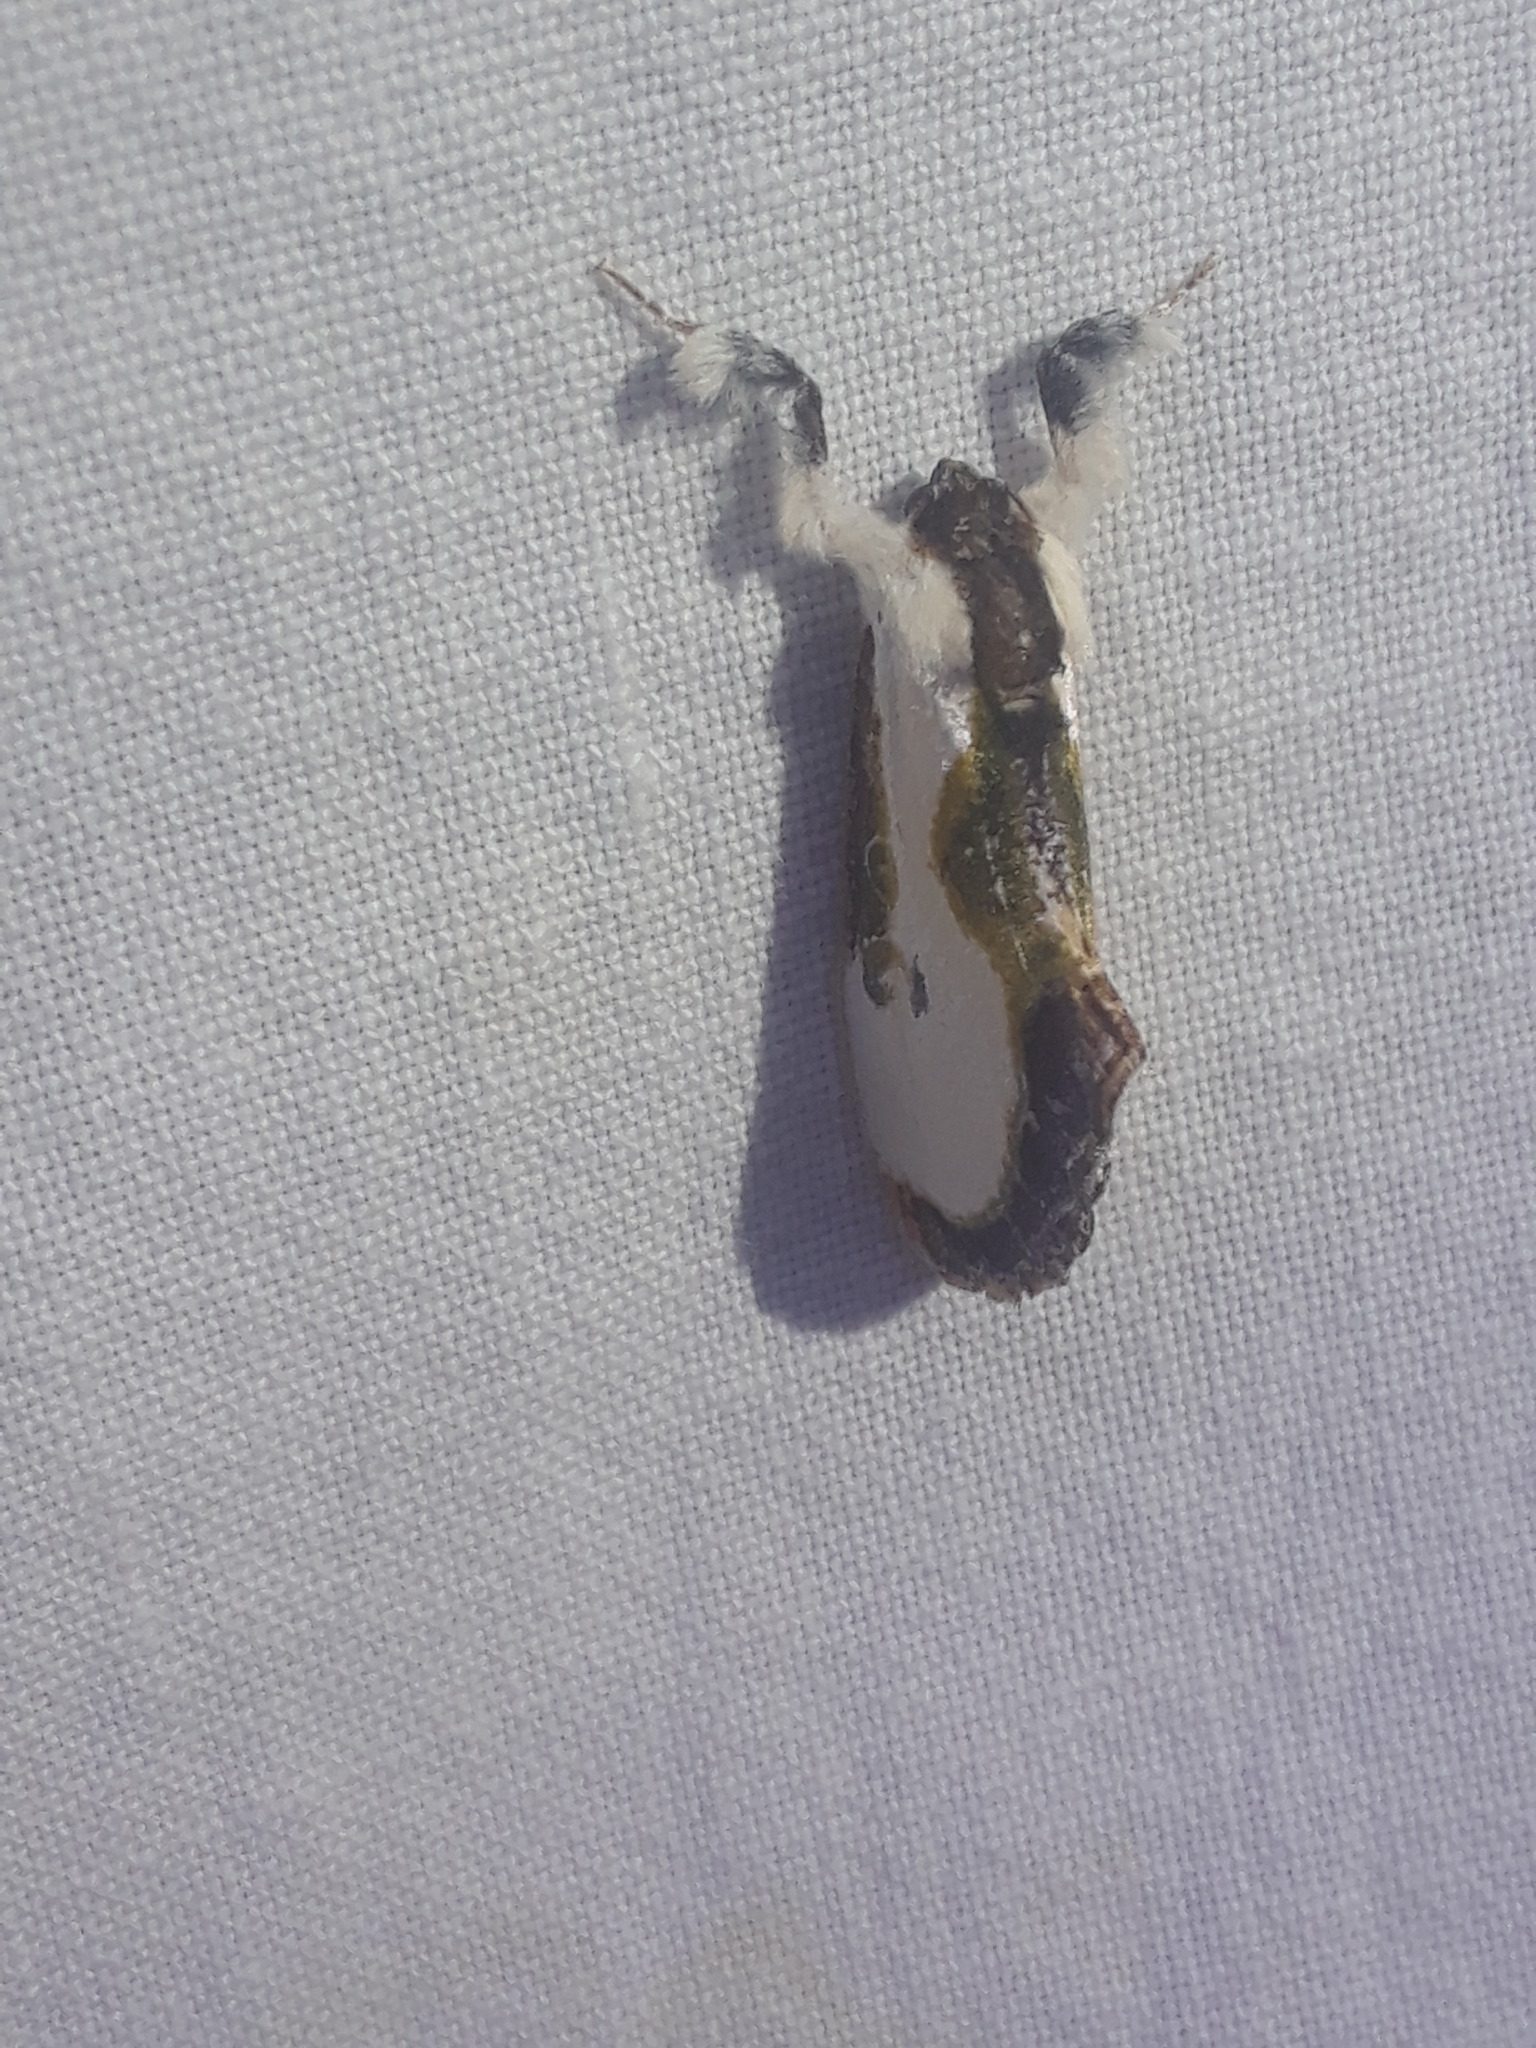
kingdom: Animalia
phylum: Arthropoda
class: Insecta
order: Lepidoptera
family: Noctuidae
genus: Eudryas
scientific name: Eudryas grata
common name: Beautiful wood-nymph
